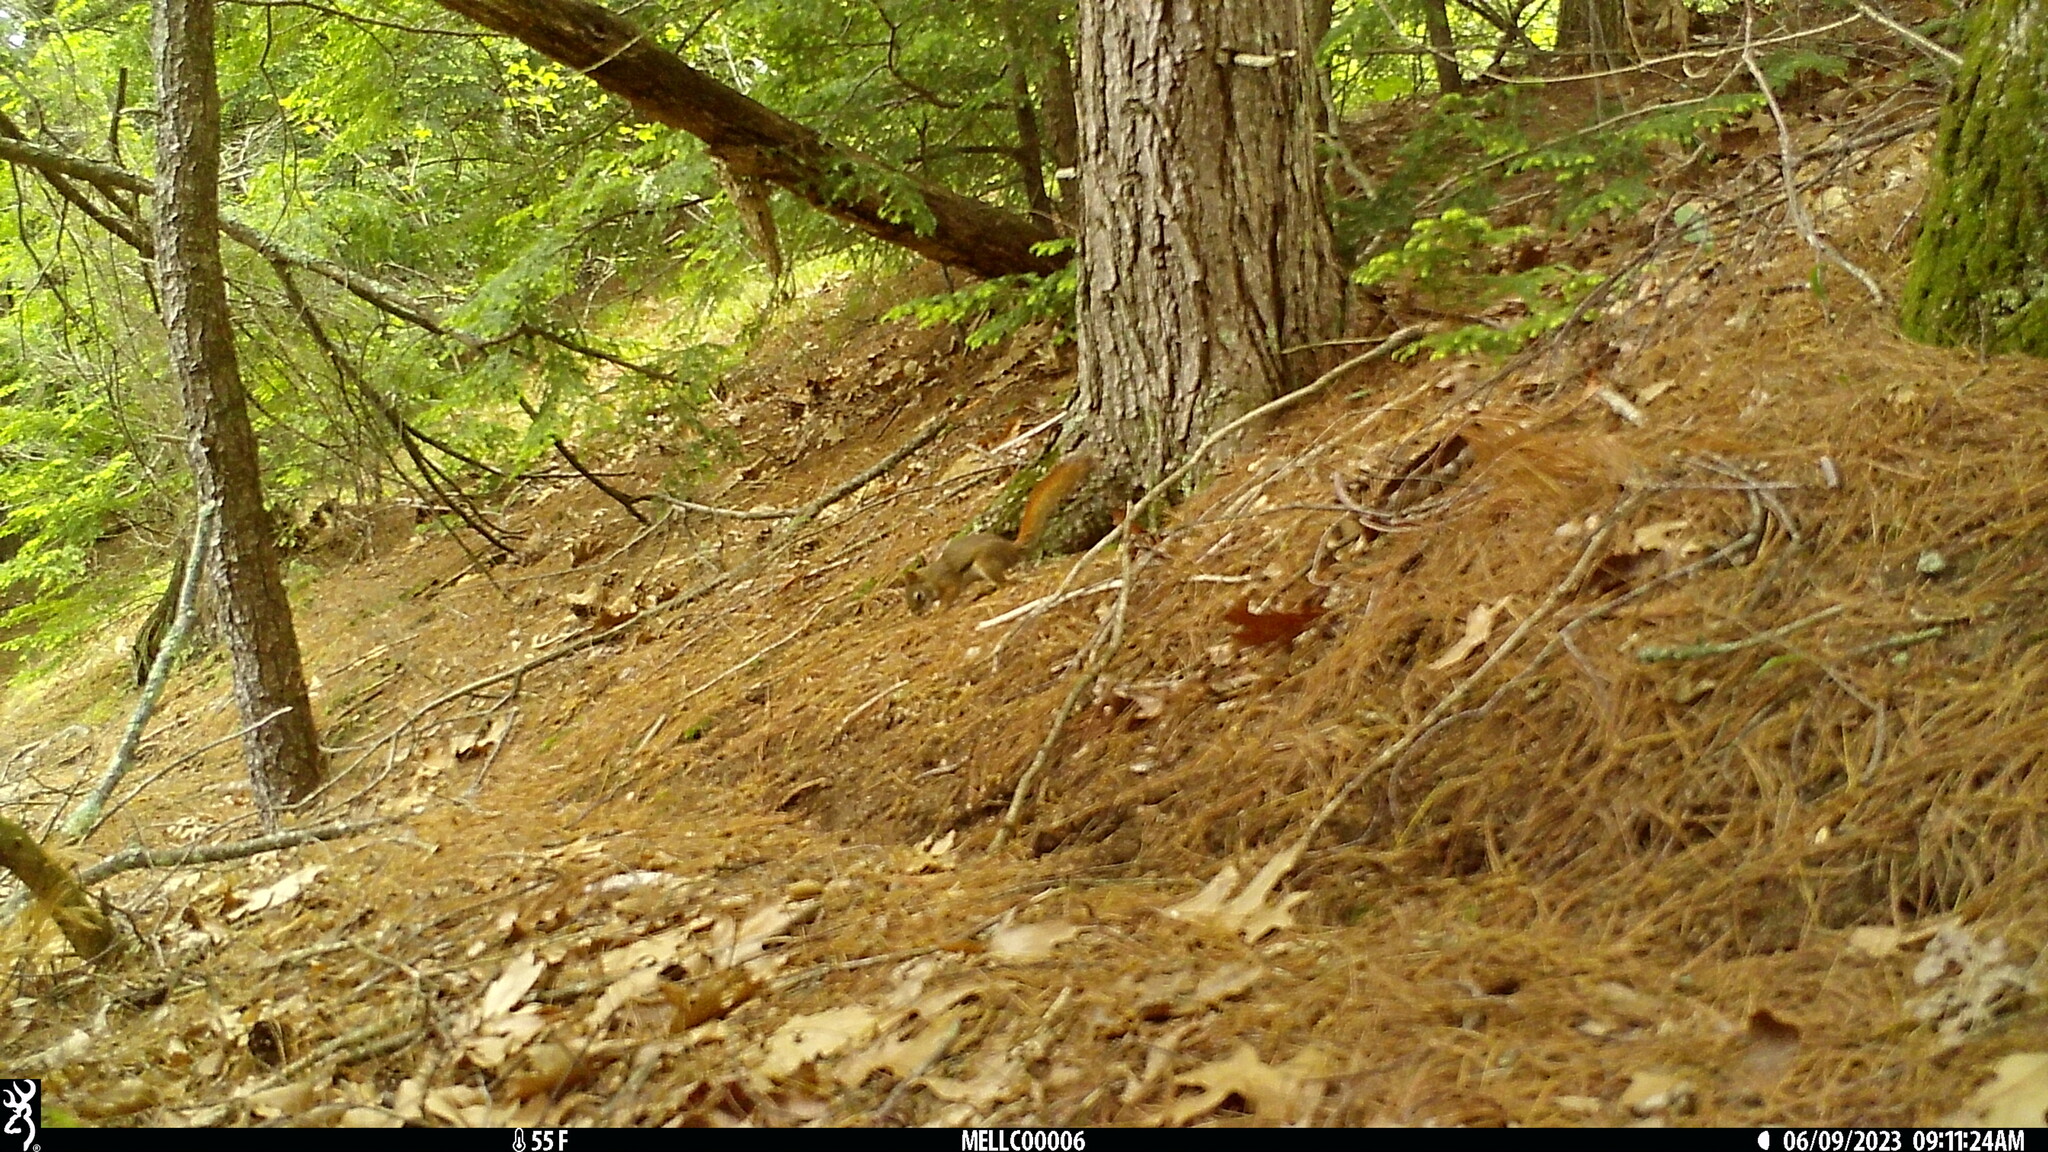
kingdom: Animalia
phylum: Chordata
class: Mammalia
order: Rodentia
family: Sciuridae
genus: Tamiasciurus
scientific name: Tamiasciurus hudsonicus
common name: Red squirrel
